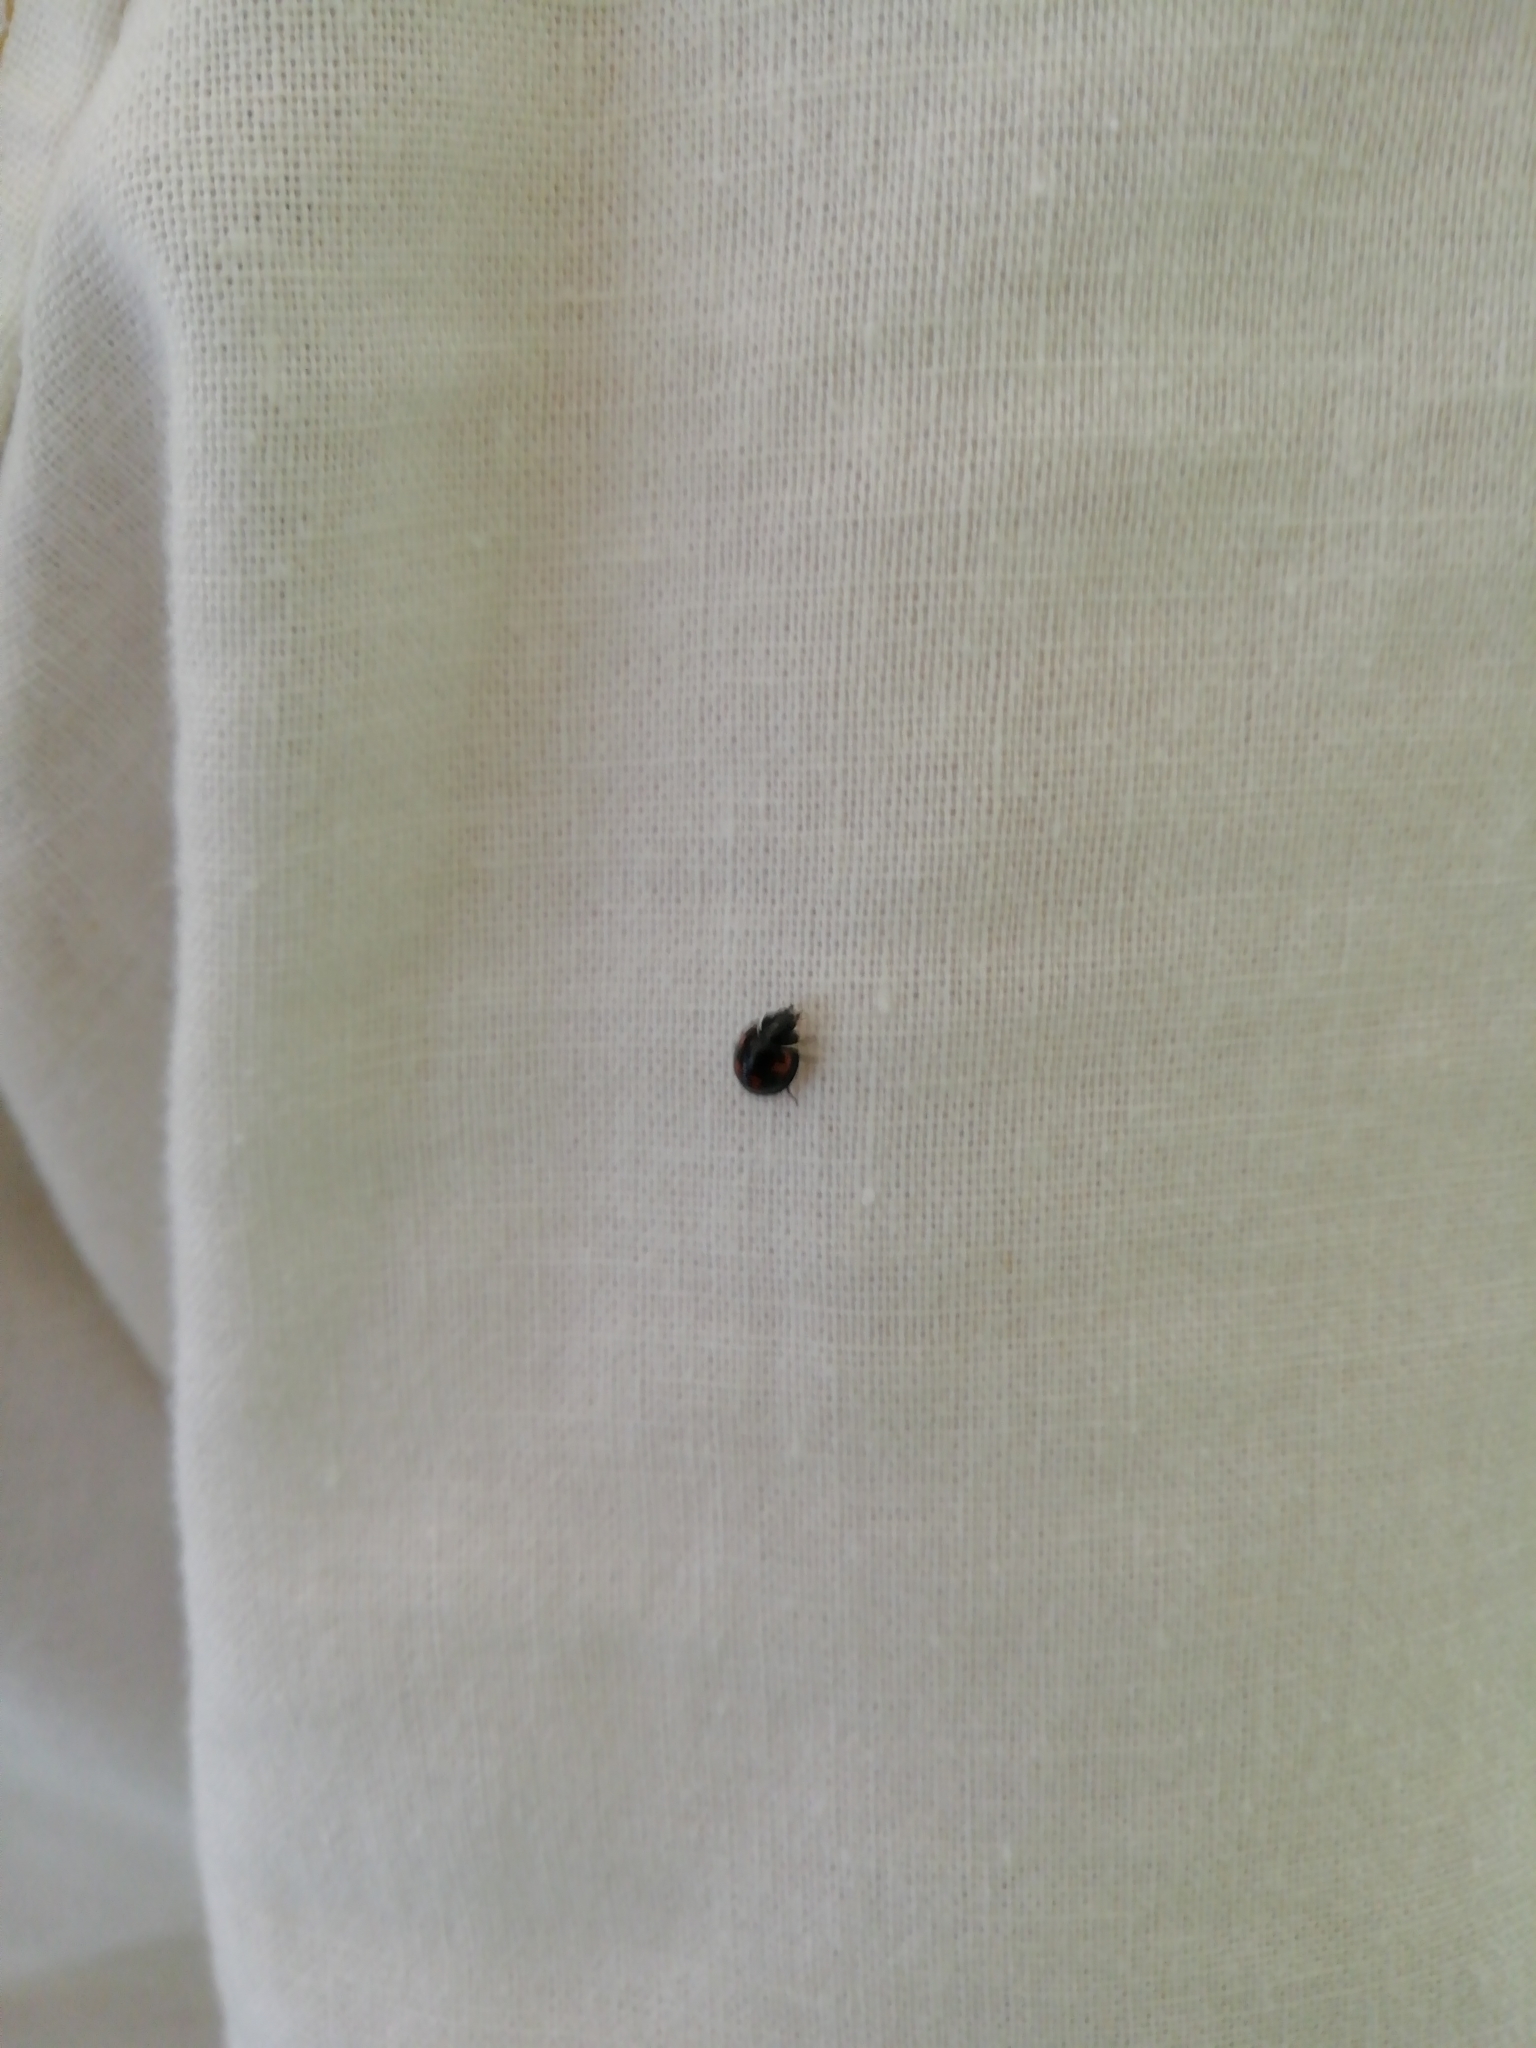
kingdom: Animalia
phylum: Arthropoda
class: Insecta
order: Coleoptera
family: Coccinellidae
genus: Brumus
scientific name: Brumus quadripustulatus
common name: Ladybird beetle
